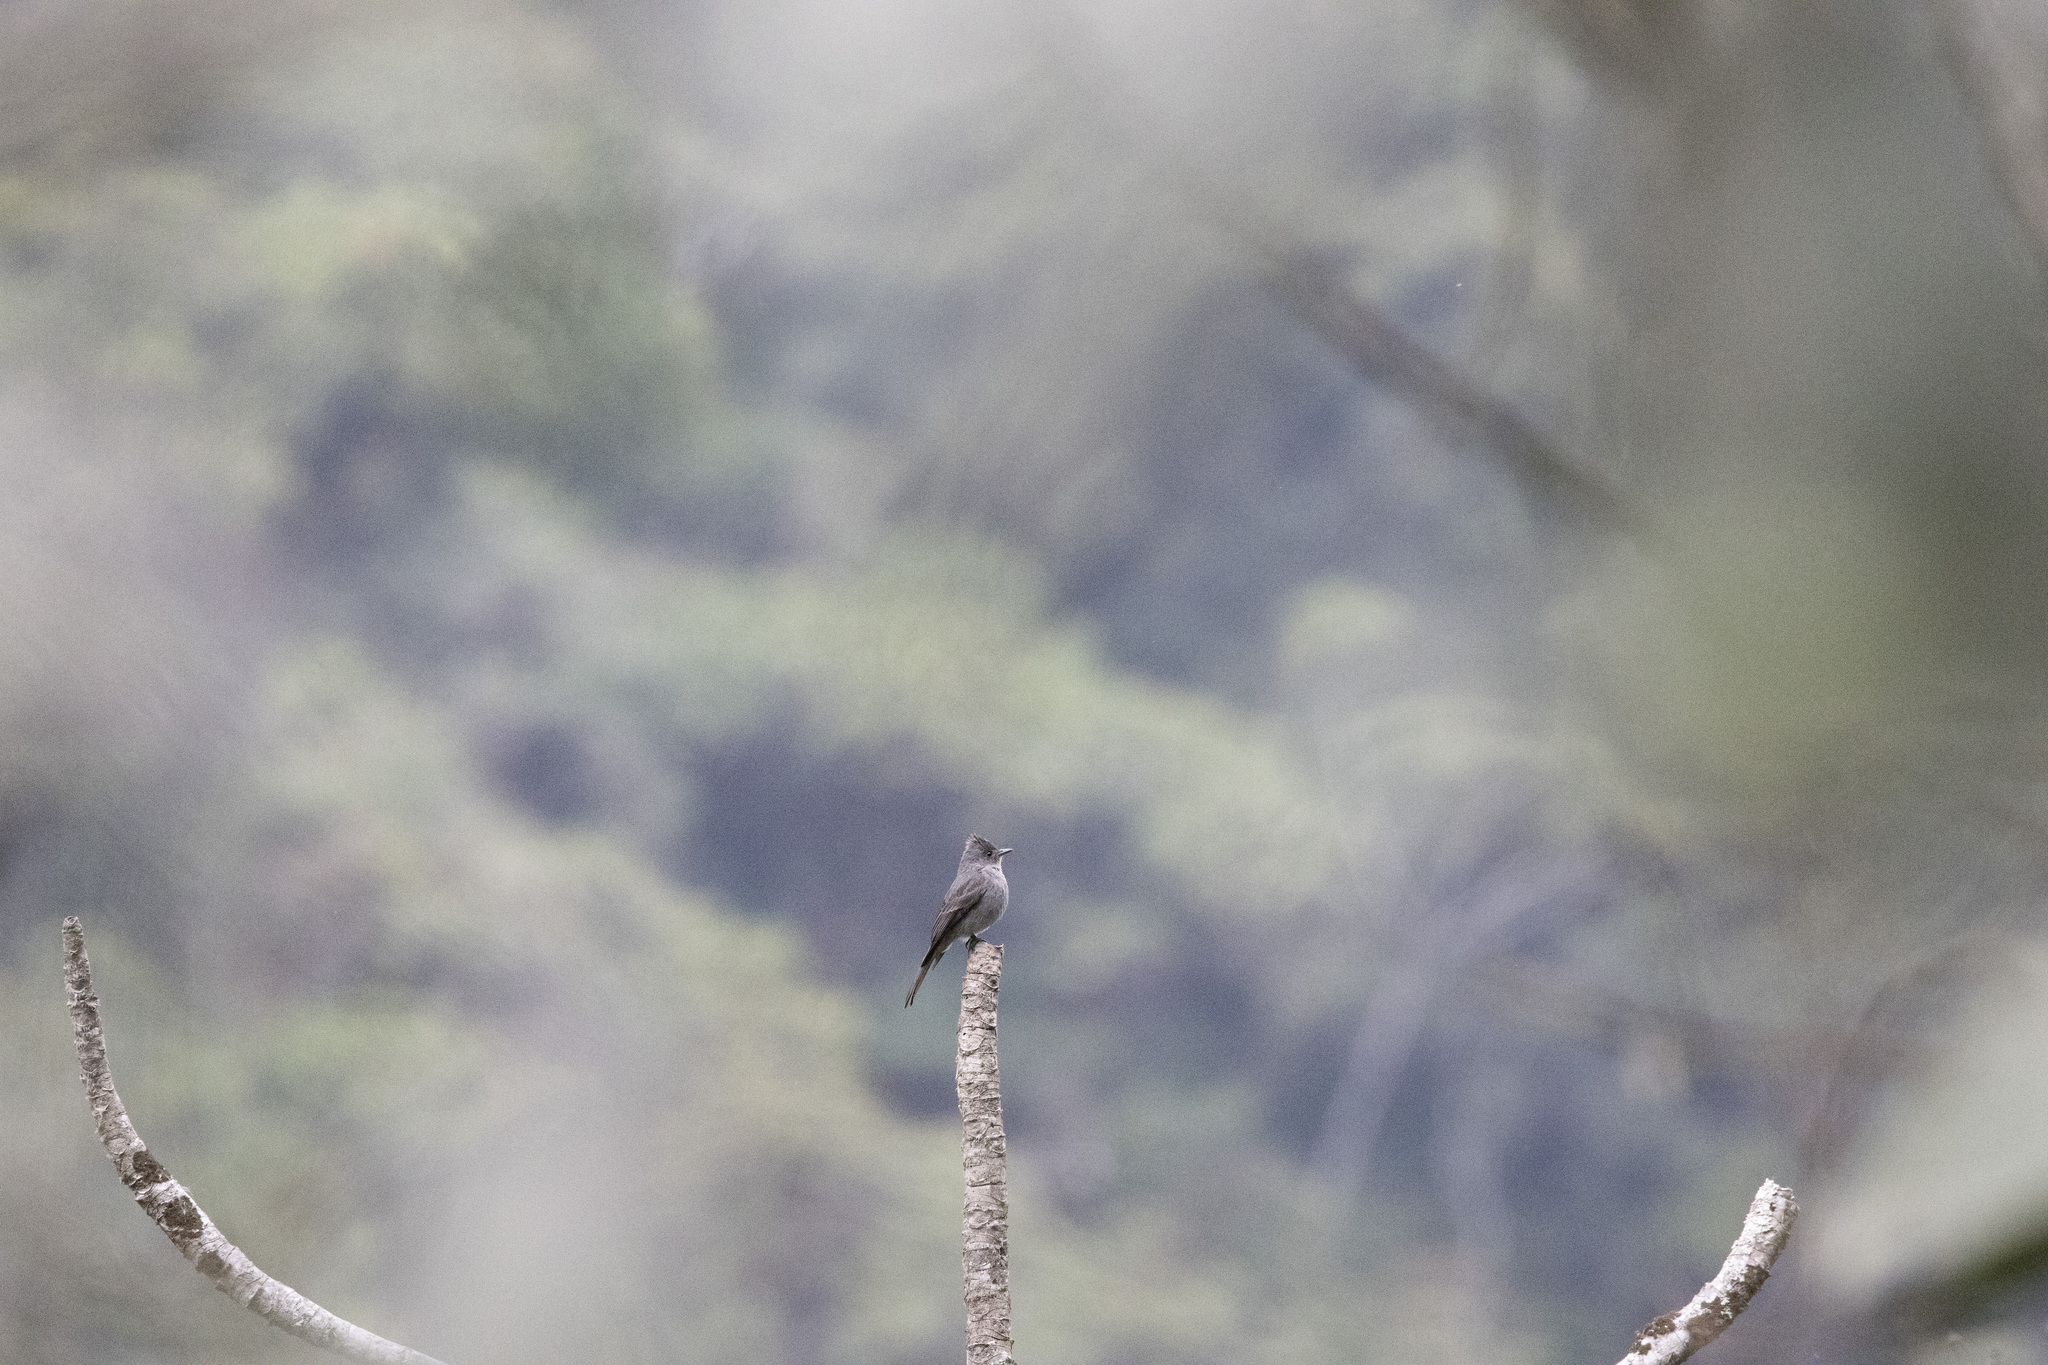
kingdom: Animalia
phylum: Chordata
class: Aves
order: Passeriformes
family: Tyrannidae
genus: Contopus
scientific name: Contopus fumigatus
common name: Smoke-colored pewee
